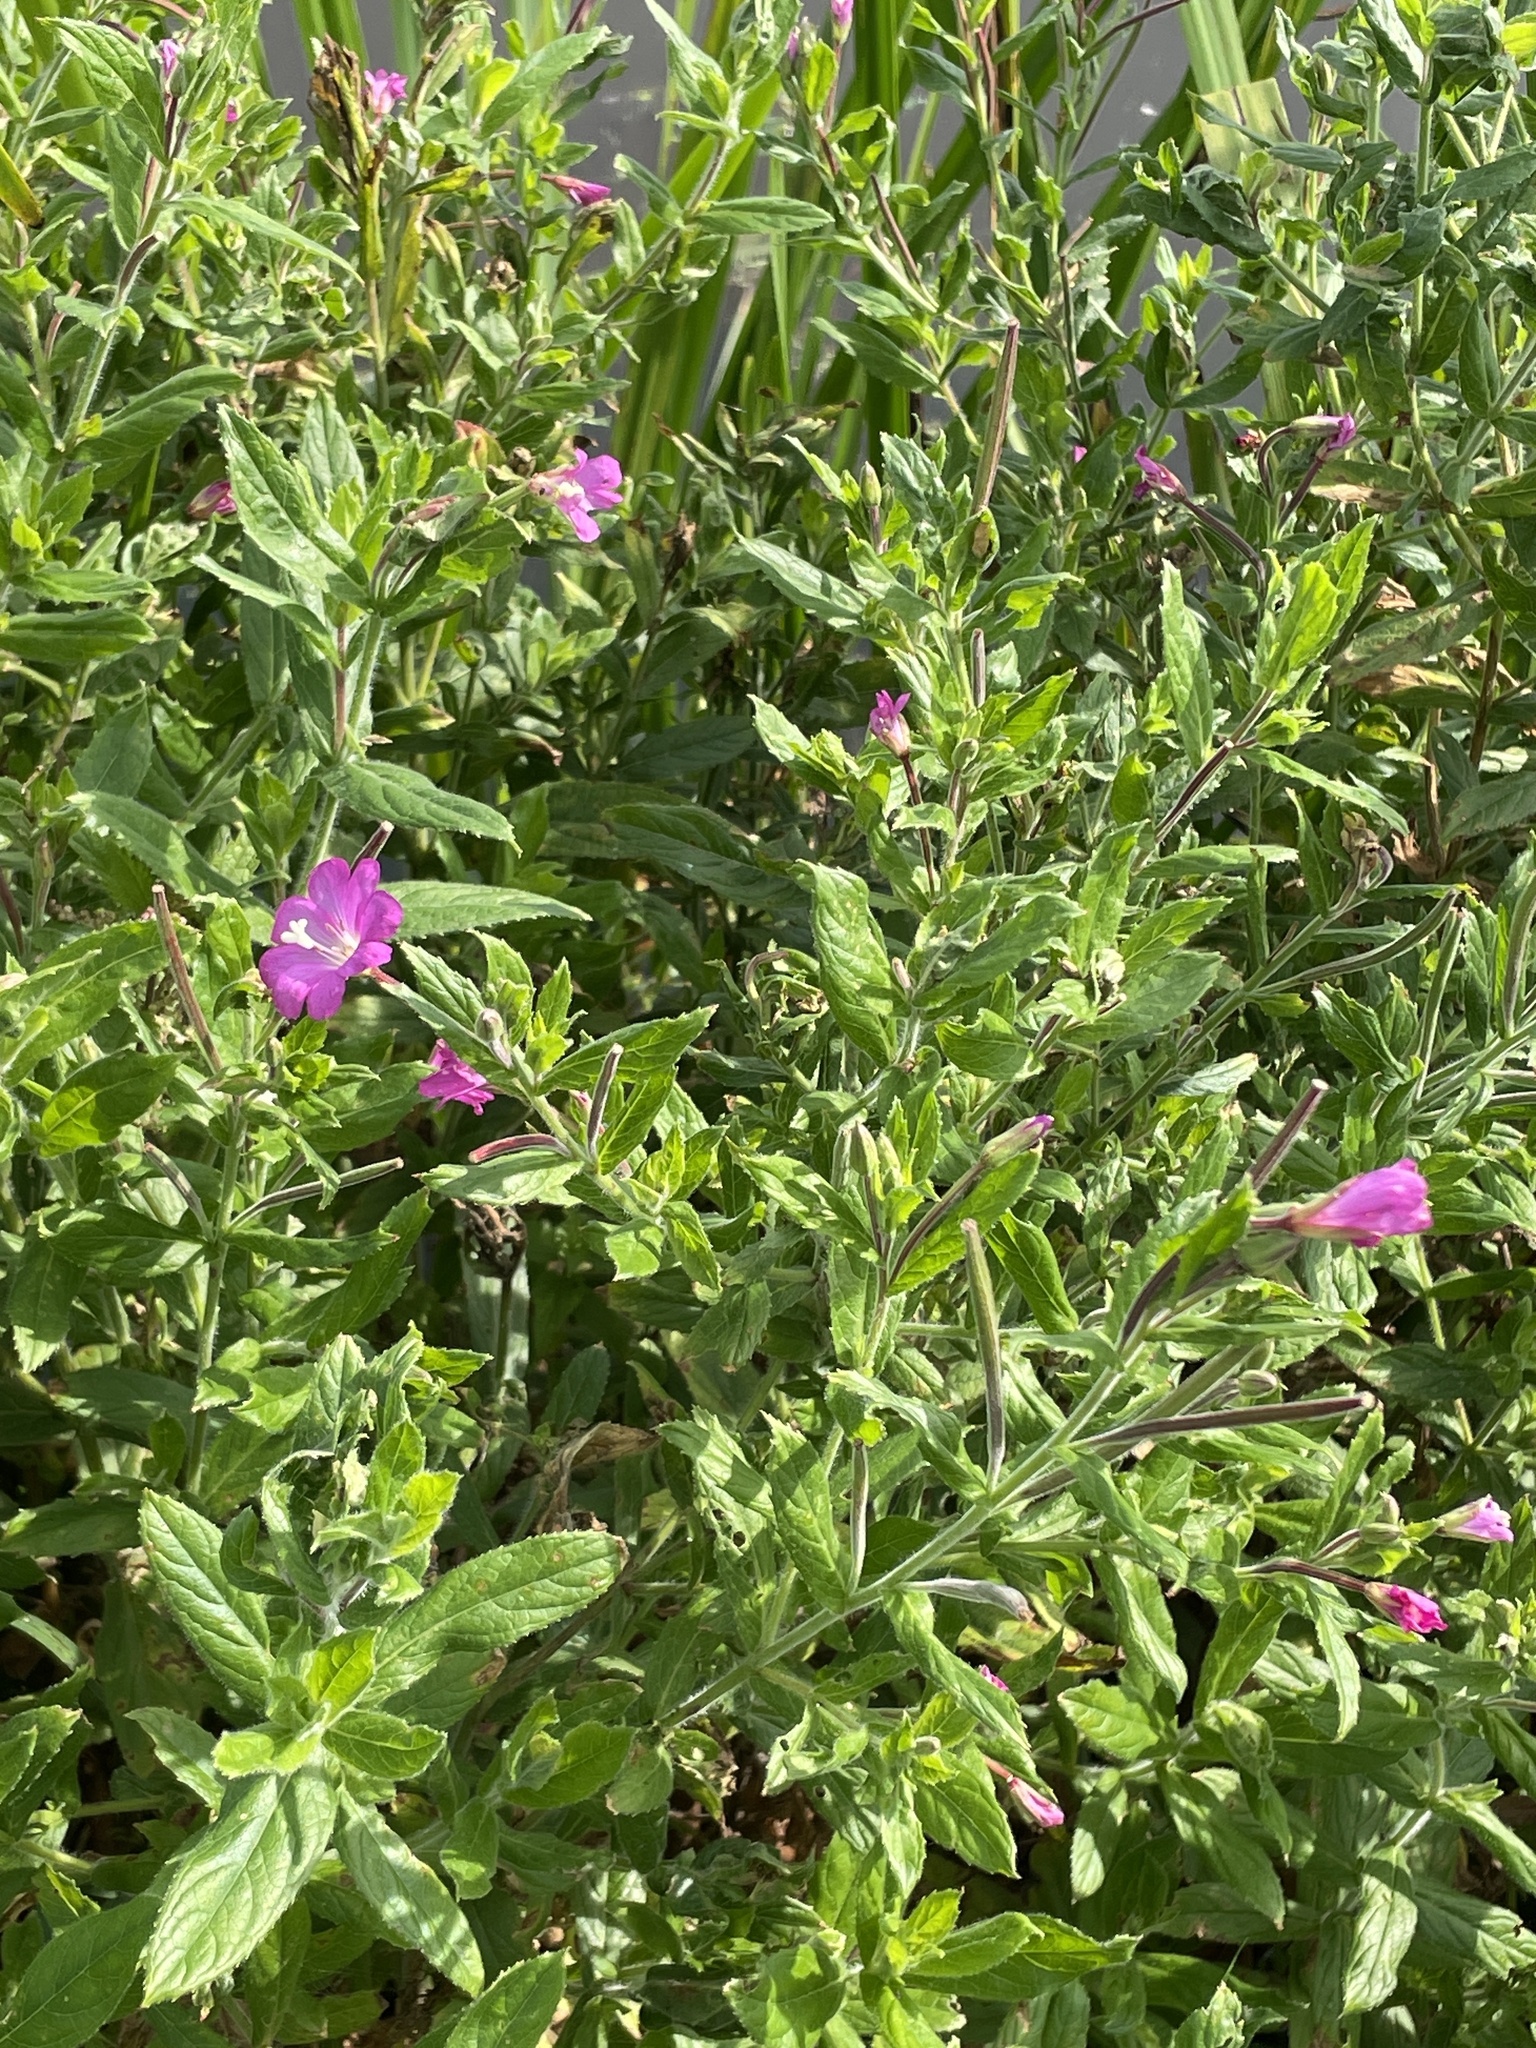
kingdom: Plantae
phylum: Tracheophyta
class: Magnoliopsida
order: Myrtales
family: Onagraceae
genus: Epilobium
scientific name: Epilobium hirsutum
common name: Great willowherb
